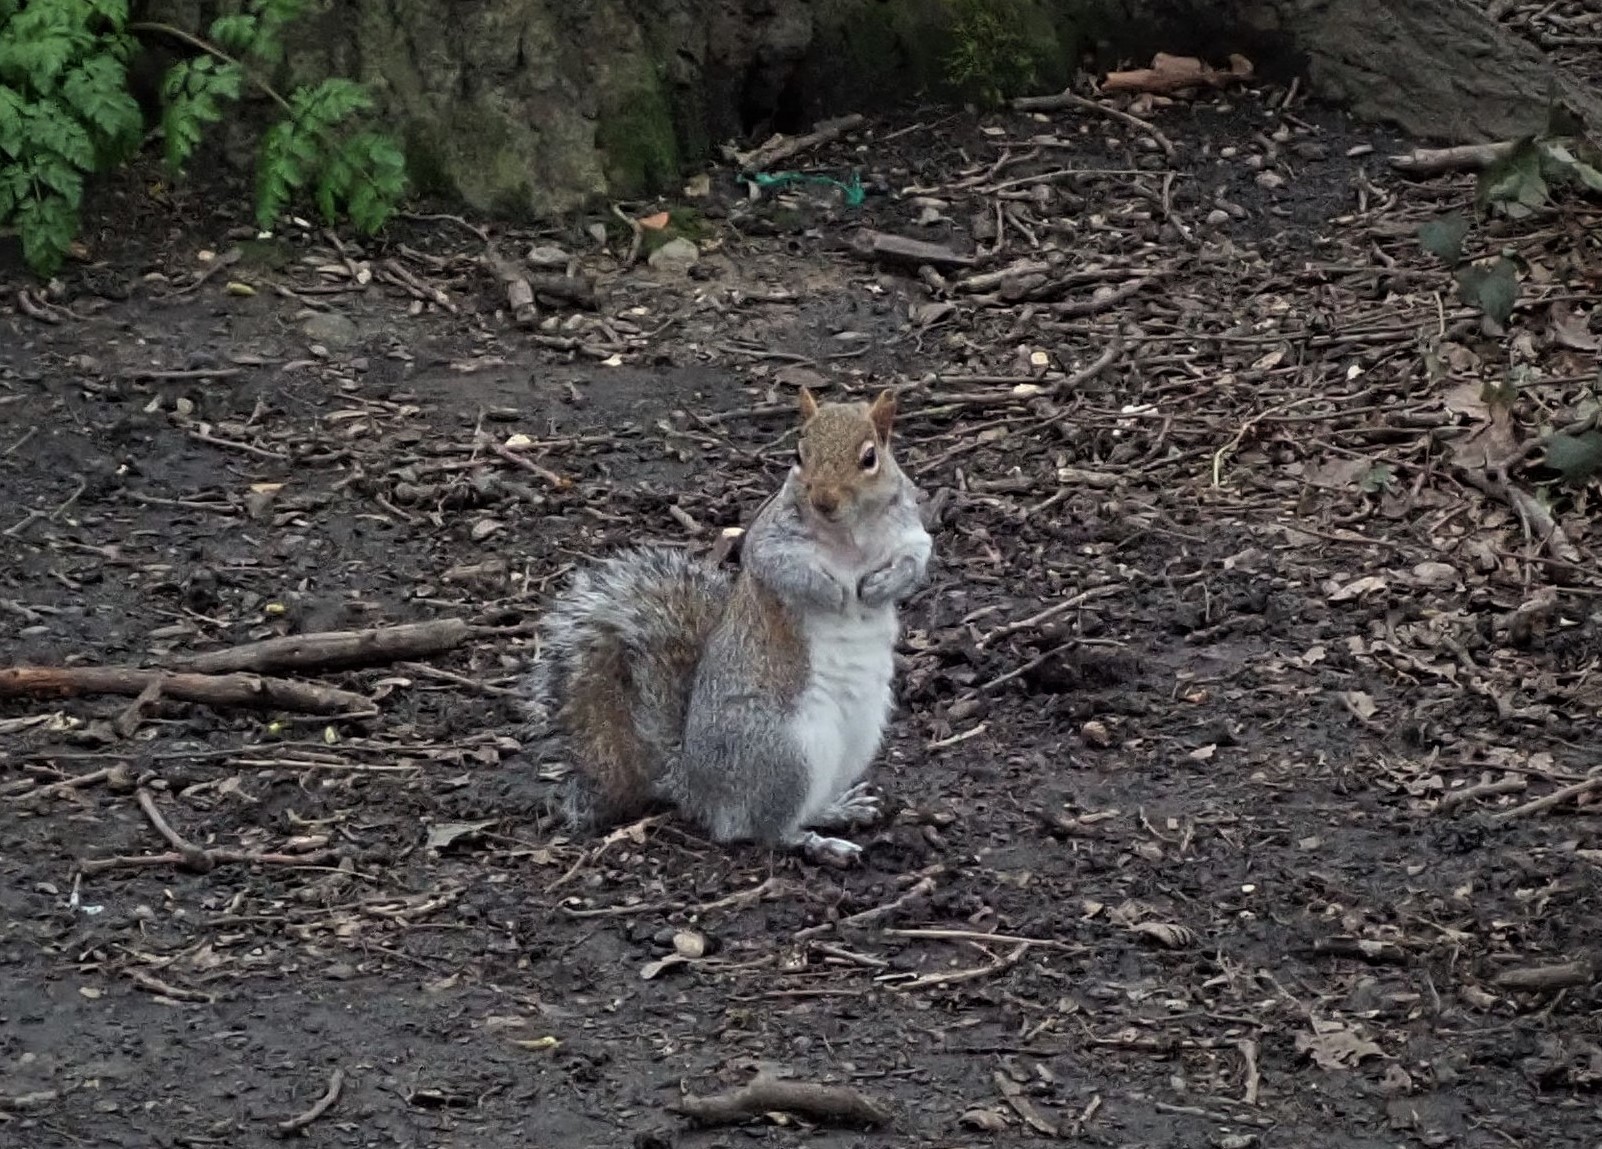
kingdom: Animalia
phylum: Chordata
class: Mammalia
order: Rodentia
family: Sciuridae
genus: Sciurus
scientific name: Sciurus carolinensis
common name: Eastern gray squirrel
